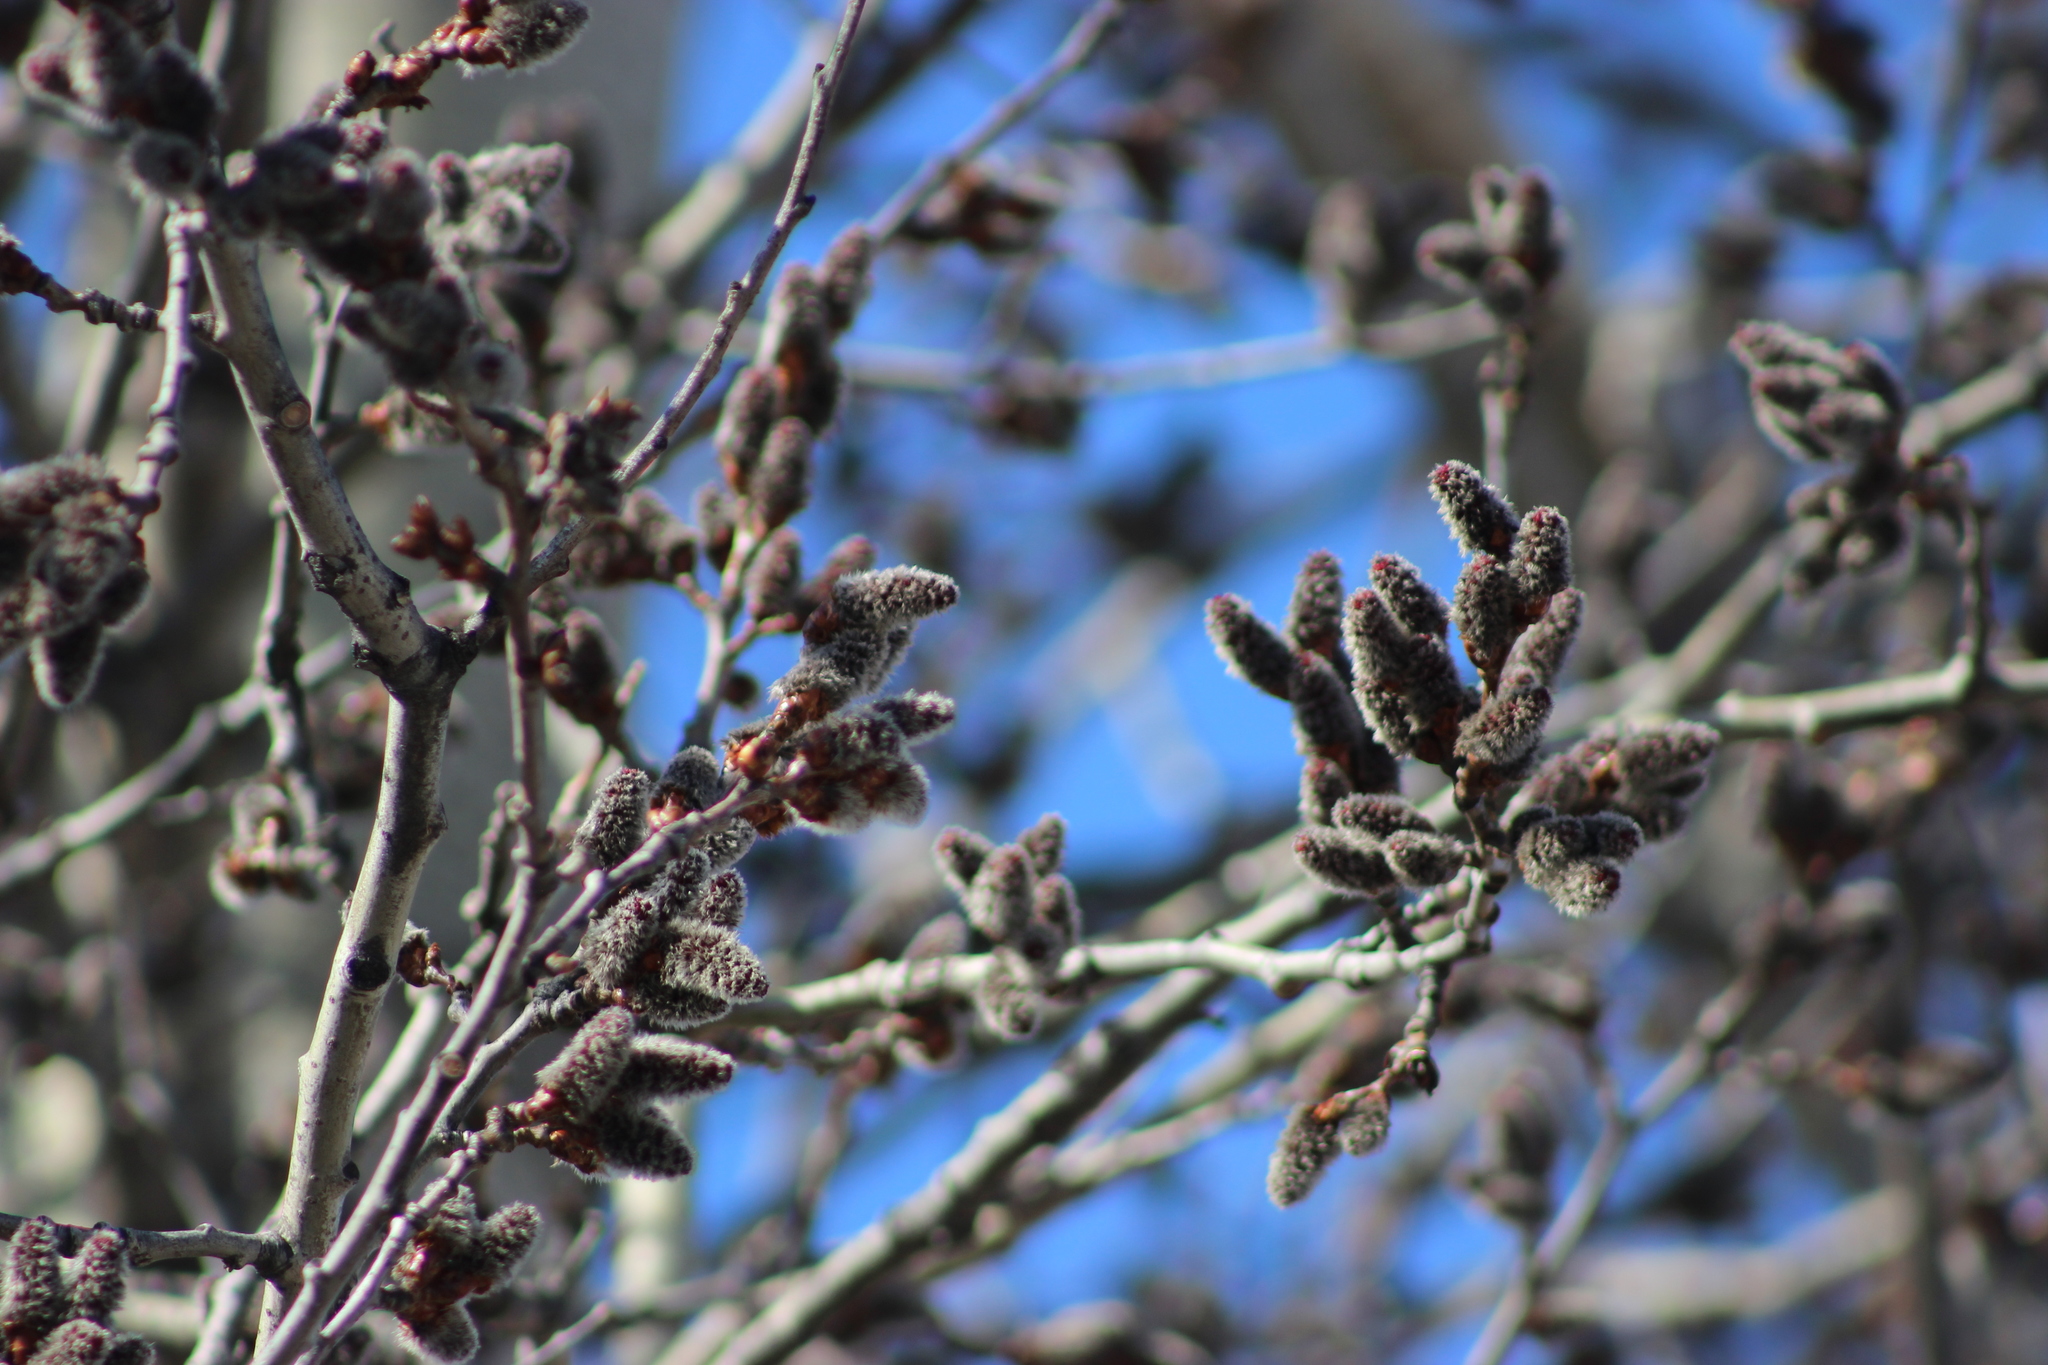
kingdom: Plantae
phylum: Tracheophyta
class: Magnoliopsida
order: Malpighiales
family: Salicaceae
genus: Populus
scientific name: Populus tremula
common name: European aspen
